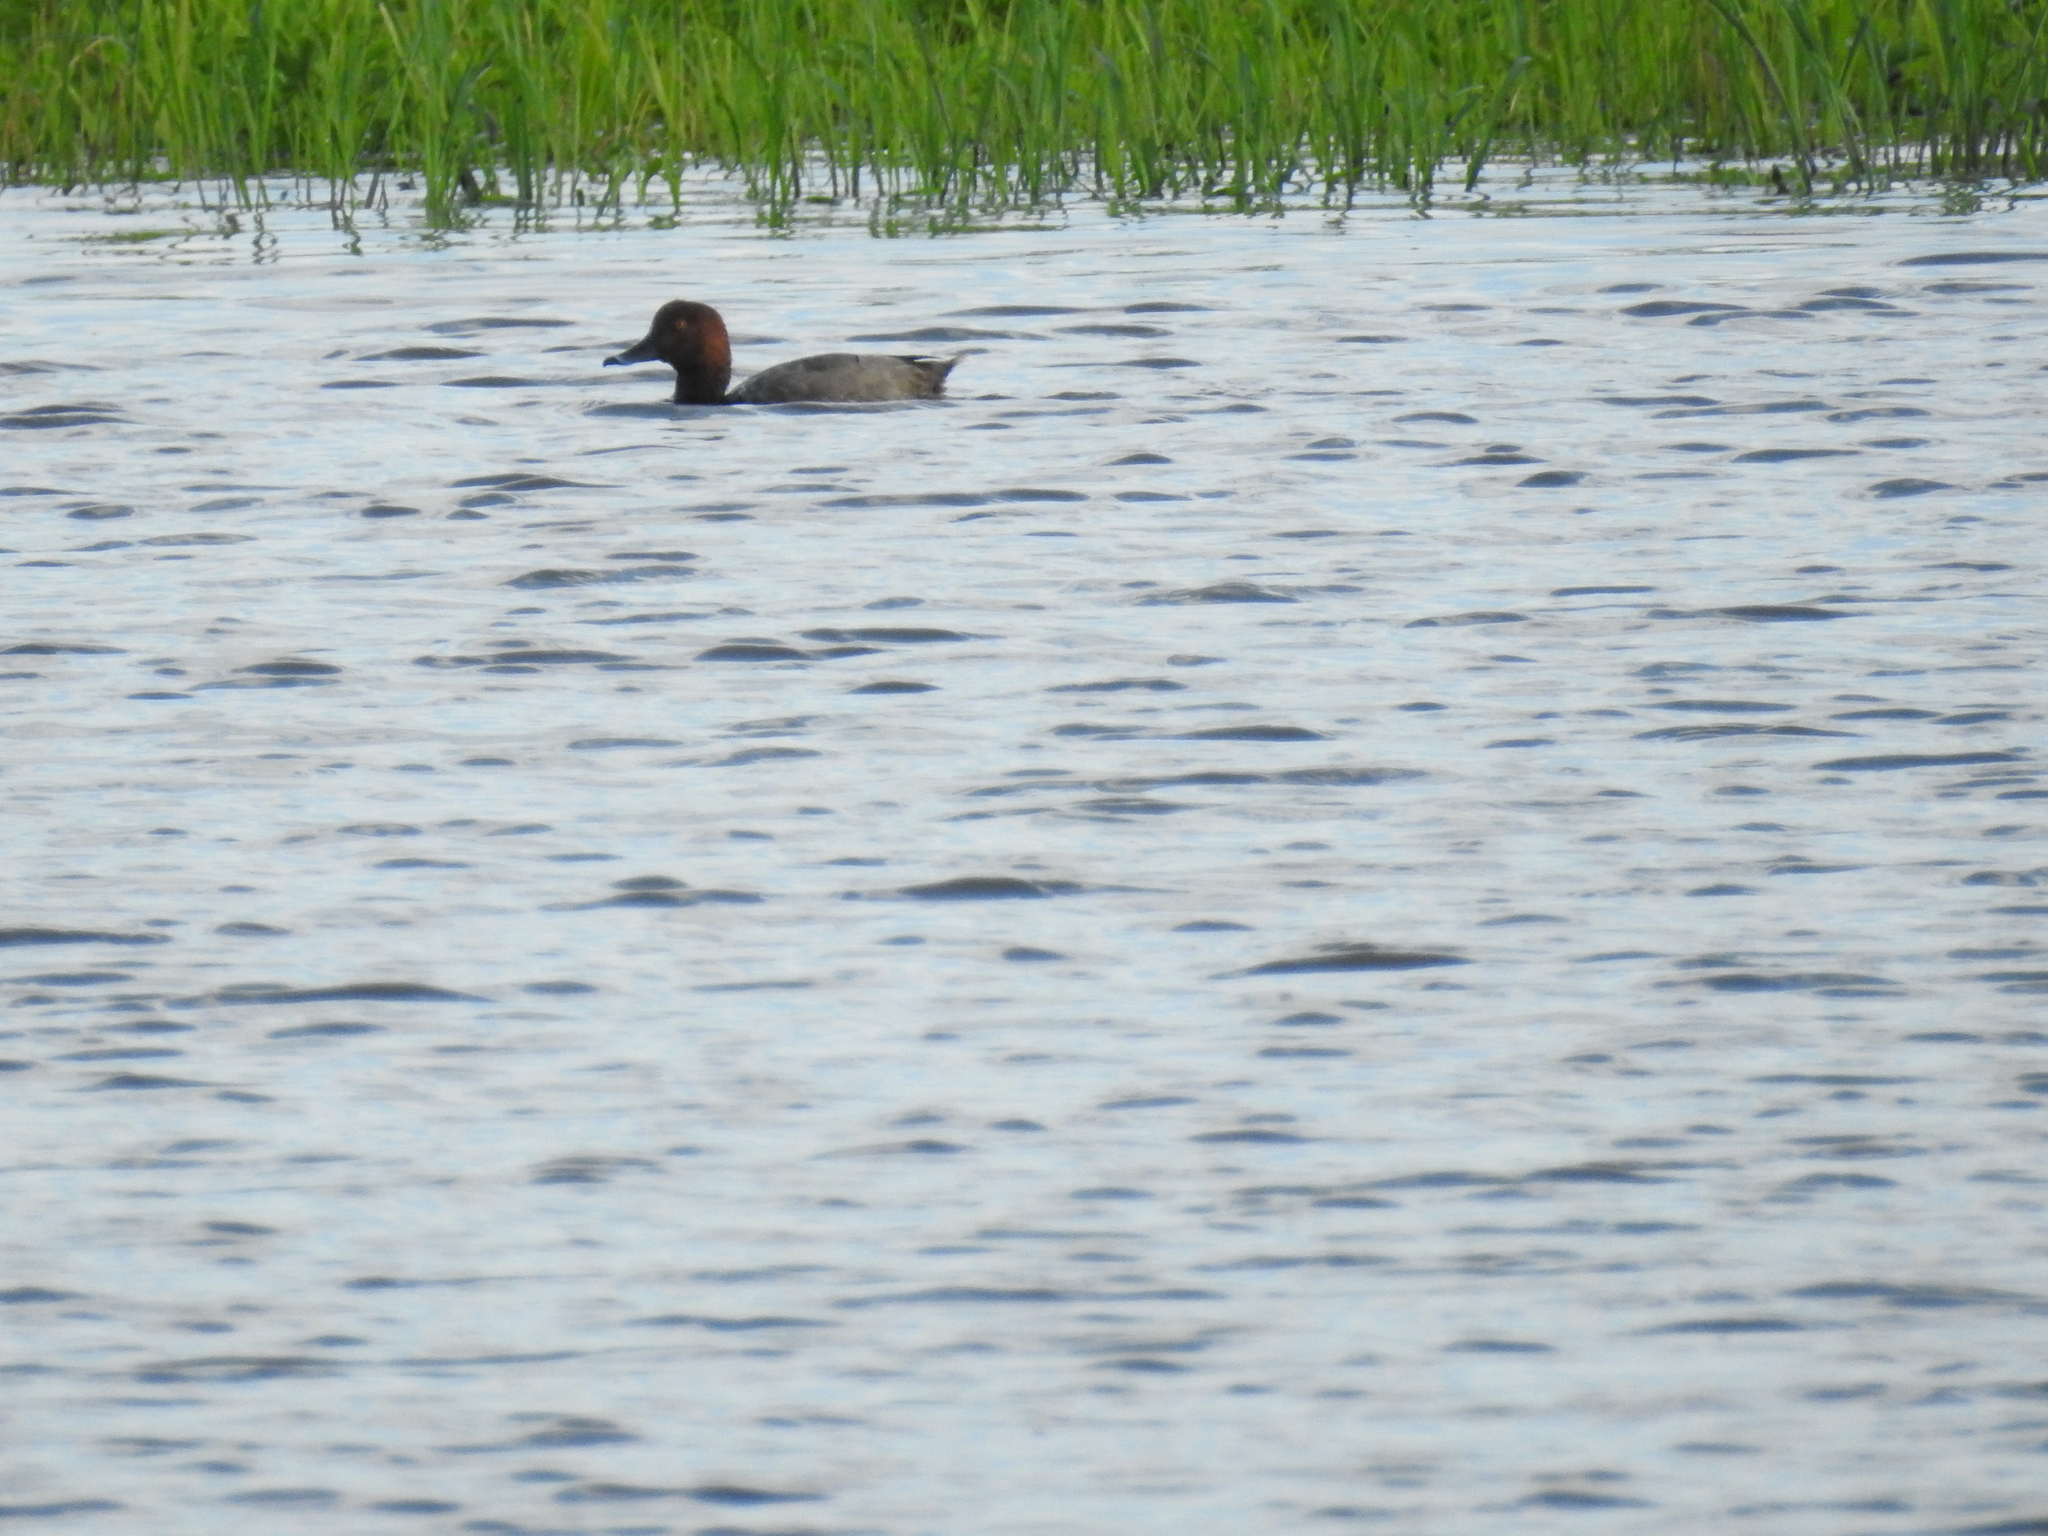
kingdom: Animalia
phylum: Chordata
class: Aves
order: Anseriformes
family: Anatidae
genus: Aythya
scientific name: Aythya americana
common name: Redhead
